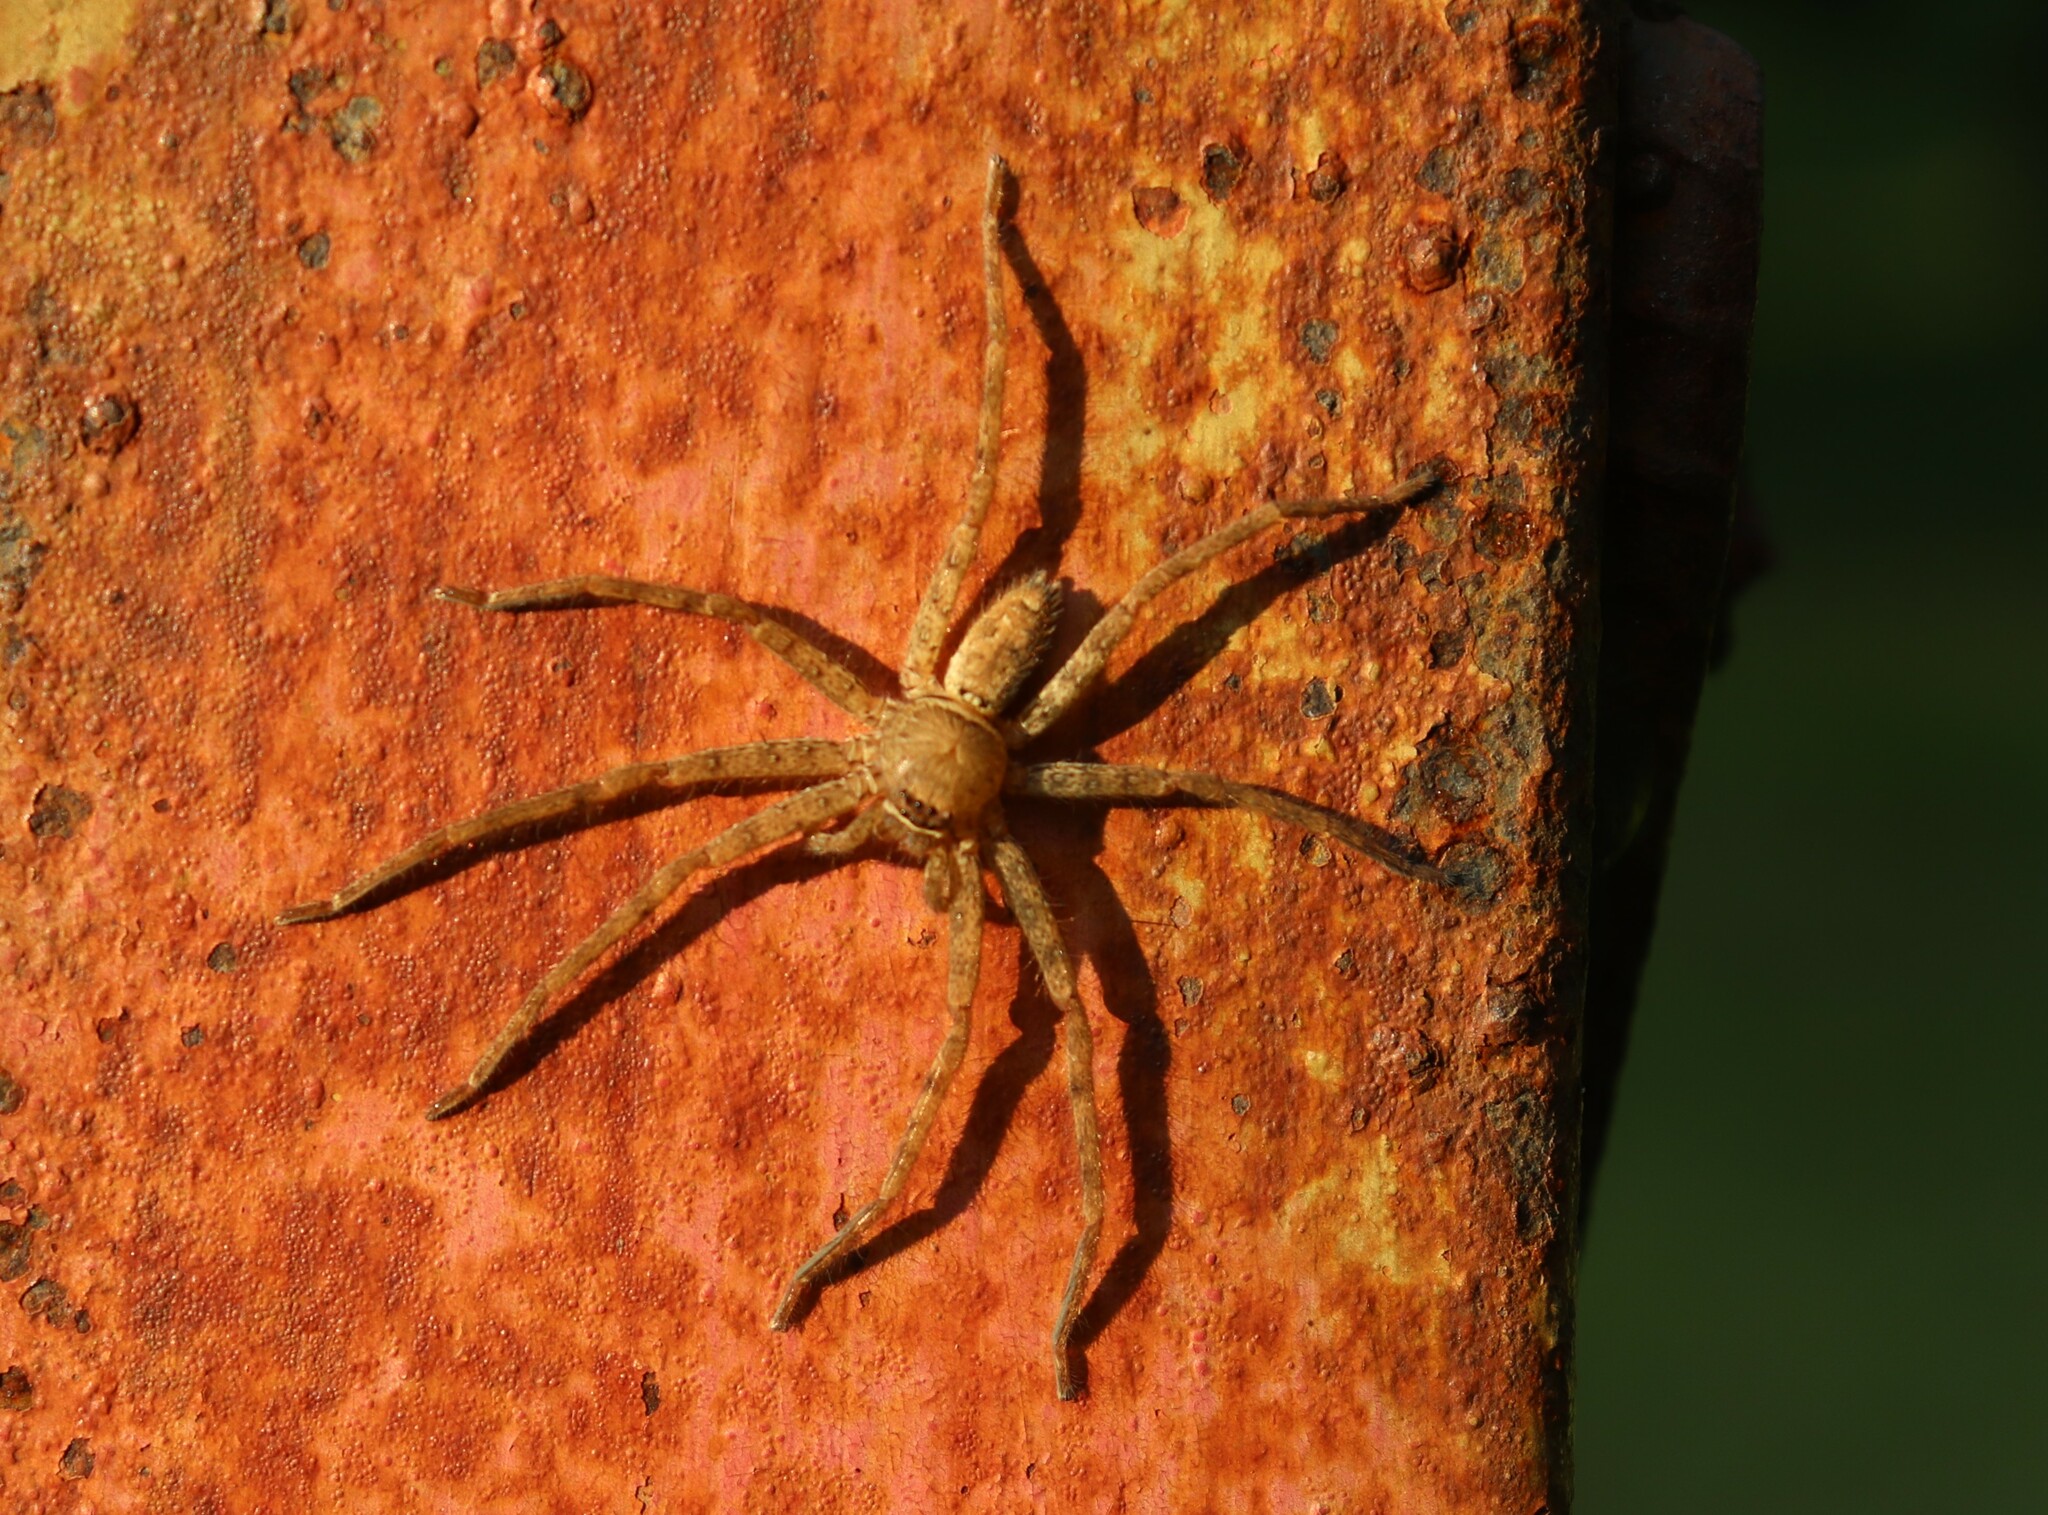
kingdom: Animalia
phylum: Arthropoda
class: Arachnida
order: Araneae
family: Sparassidae
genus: Heteropoda
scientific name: Heteropoda venatoria
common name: Huntsman spider
